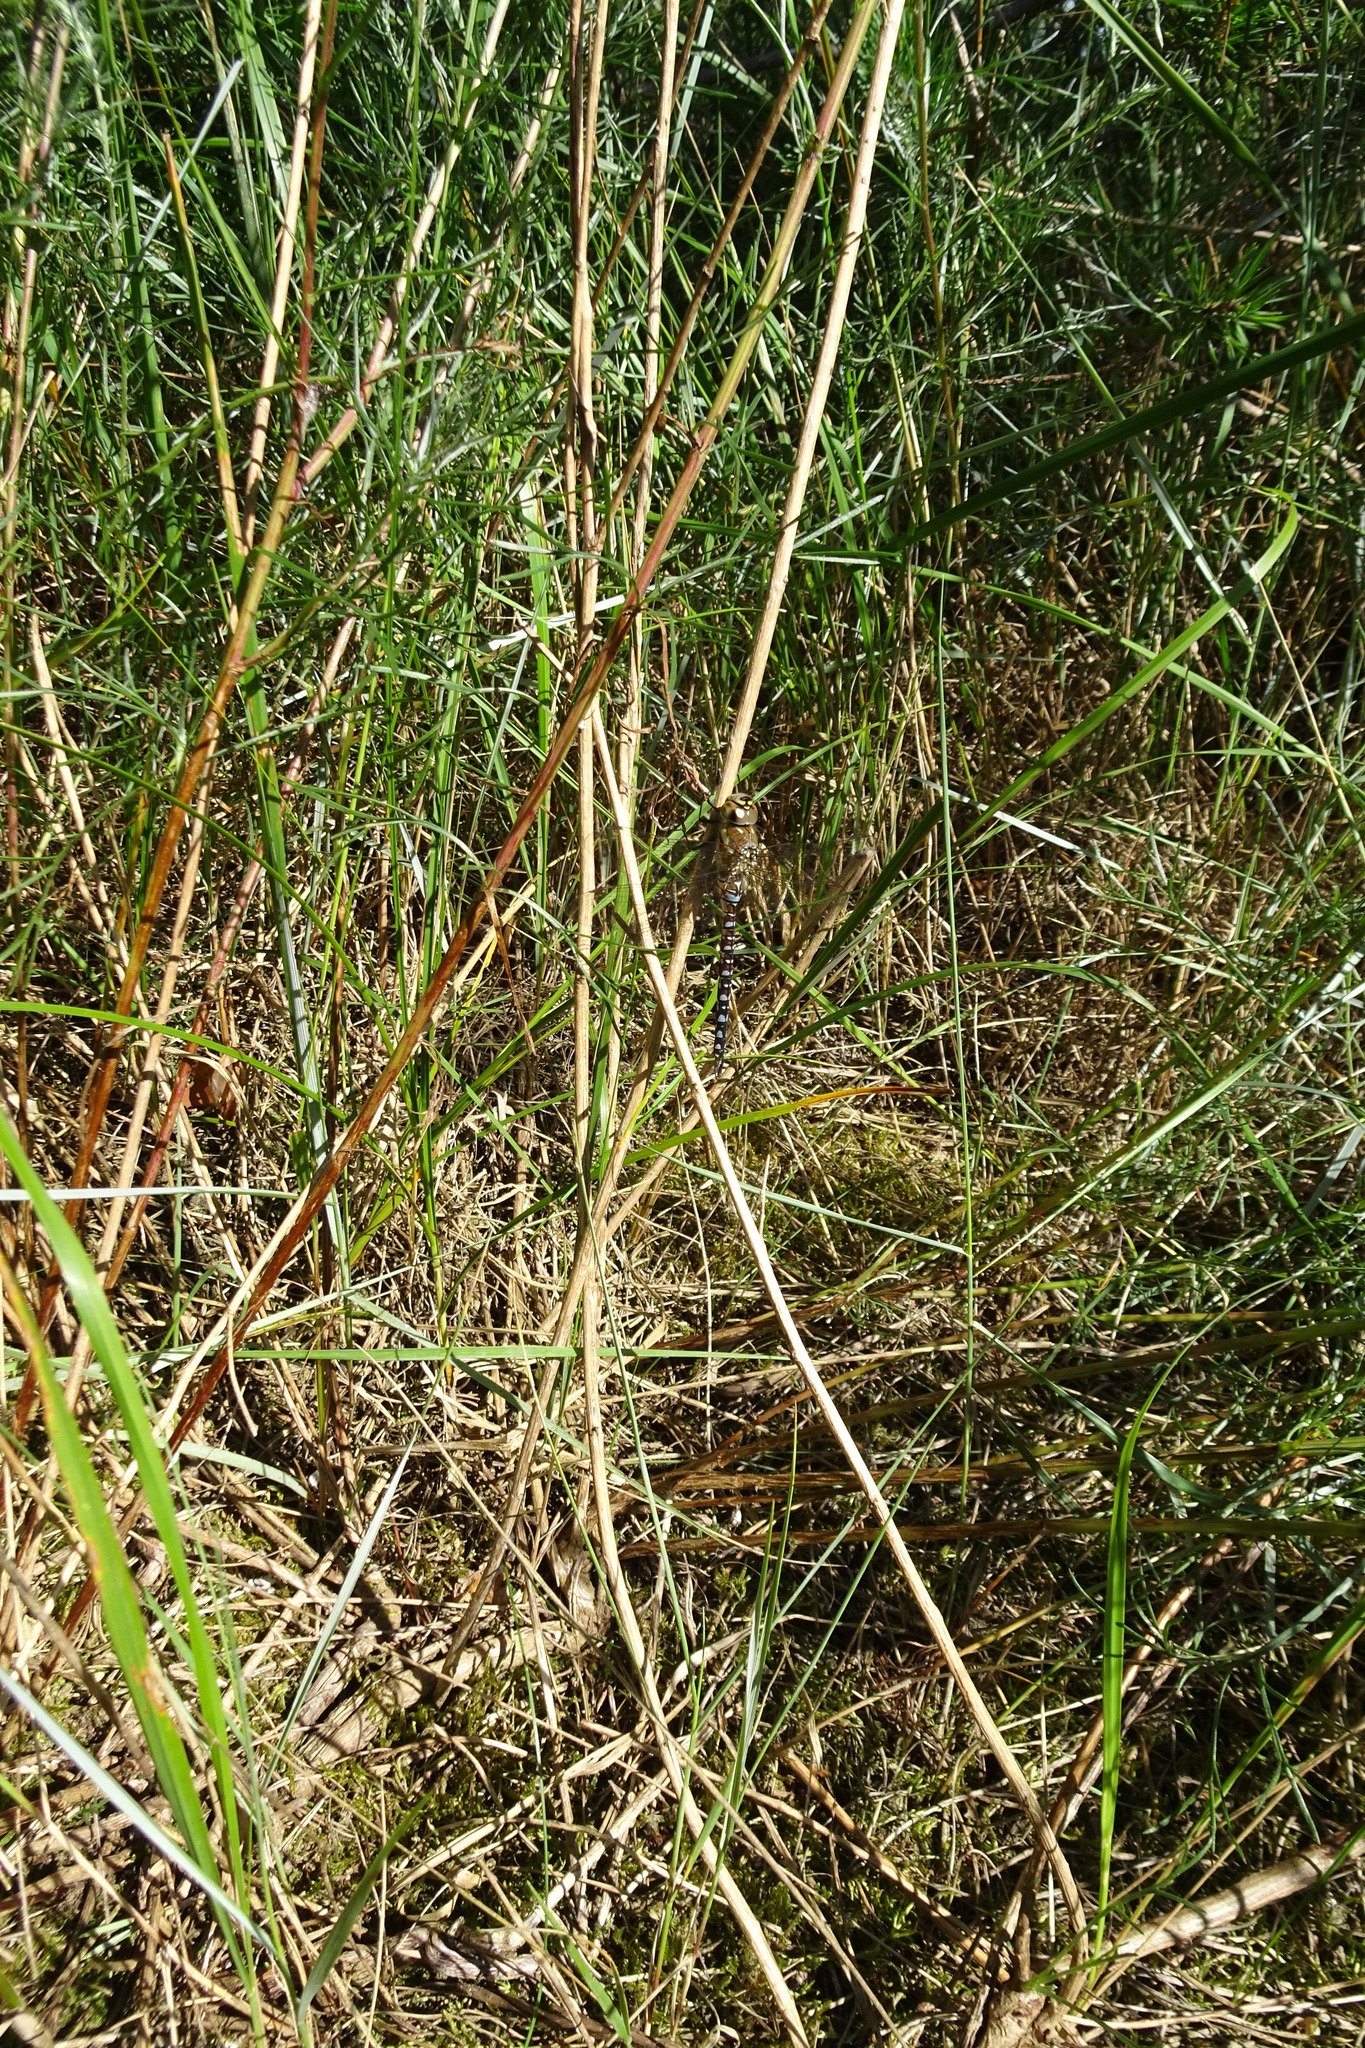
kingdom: Animalia
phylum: Arthropoda
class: Insecta
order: Odonata
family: Aeshnidae
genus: Aeshna
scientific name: Aeshna mixta
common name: Migrant hawker
